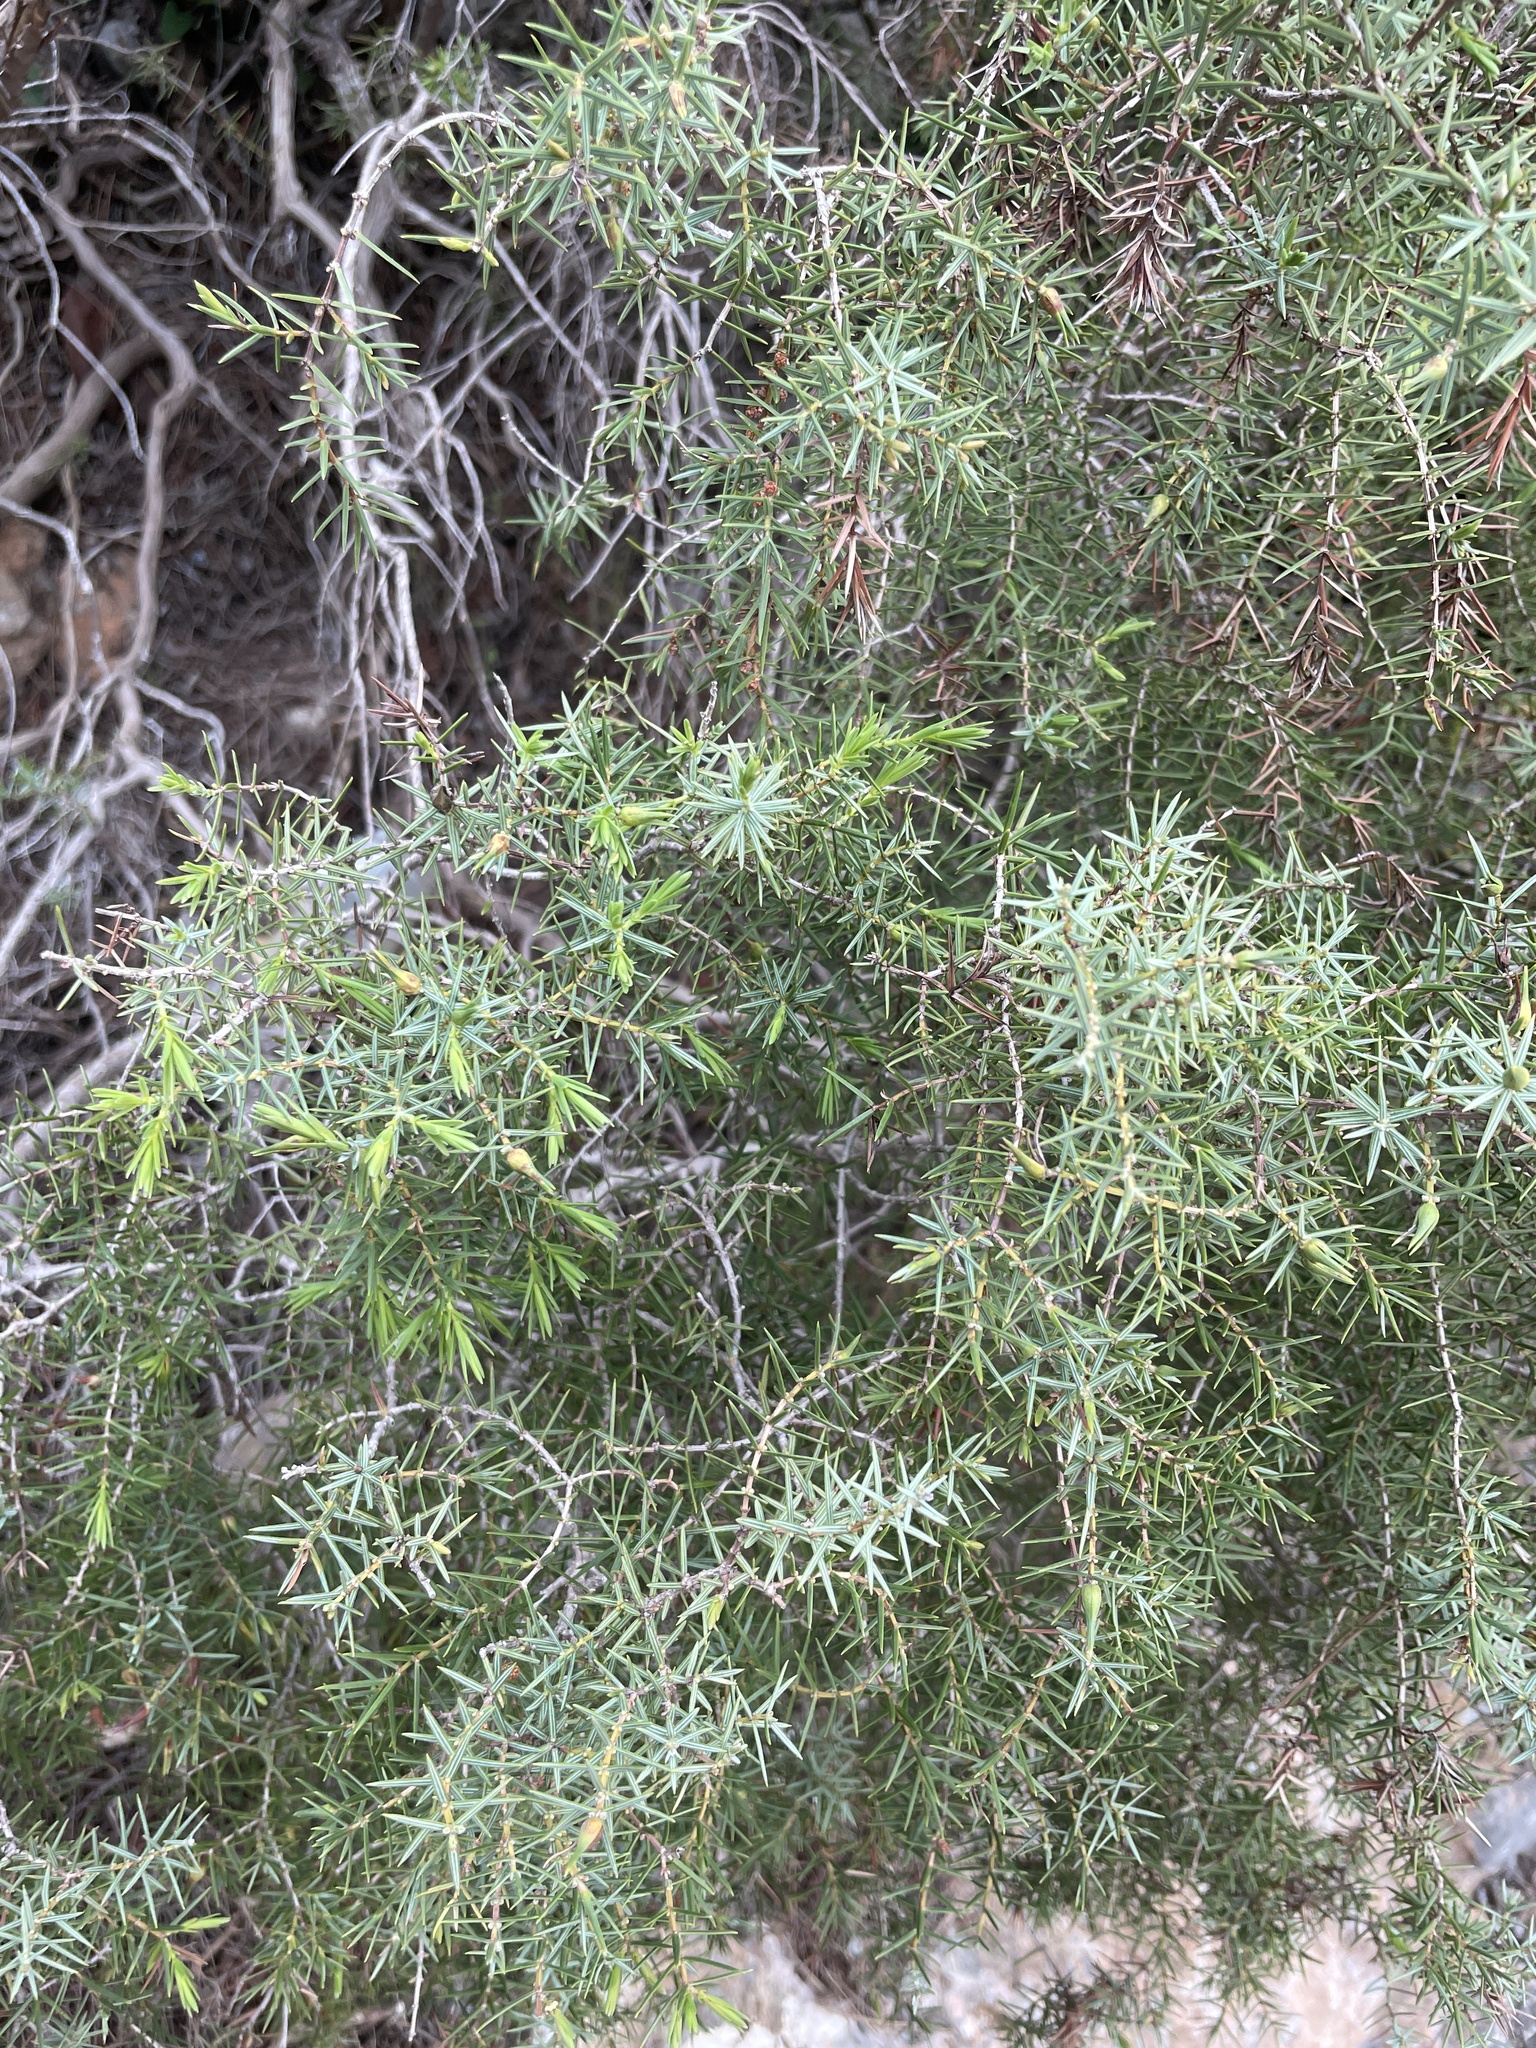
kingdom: Plantae
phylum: Tracheophyta
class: Pinopsida
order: Pinales
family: Cupressaceae
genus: Juniperus
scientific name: Juniperus oxycedrus
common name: Prickly juniper
